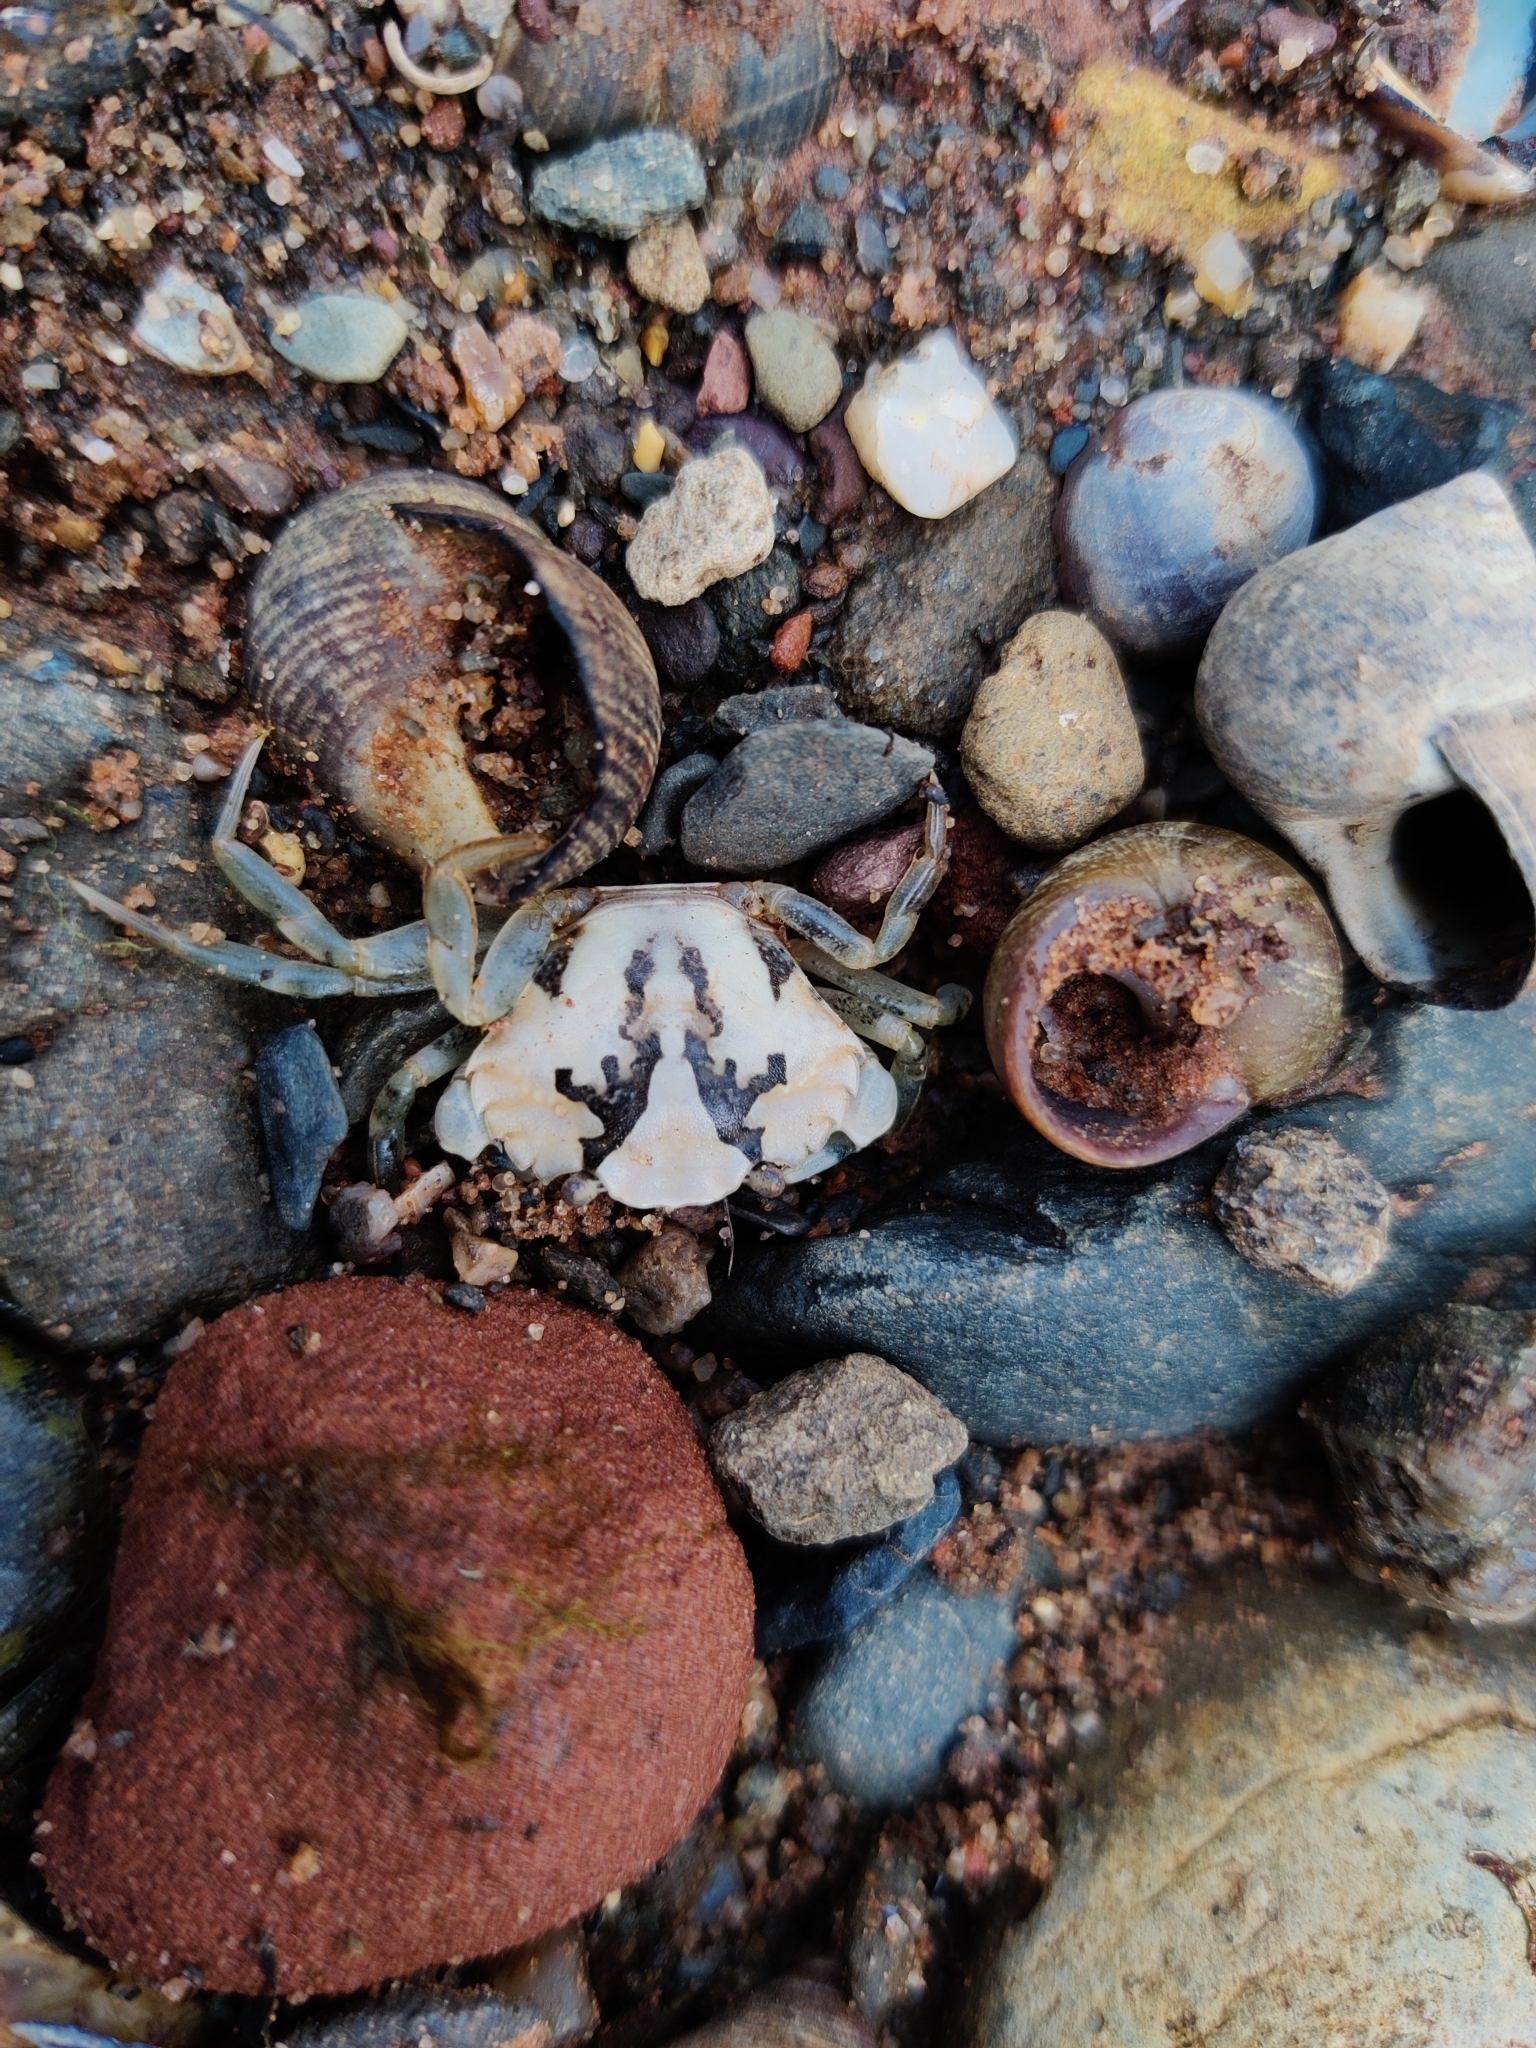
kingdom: Animalia
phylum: Arthropoda
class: Malacostraca
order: Decapoda
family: Carcinidae
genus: Carcinus
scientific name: Carcinus maenas
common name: European green crab
